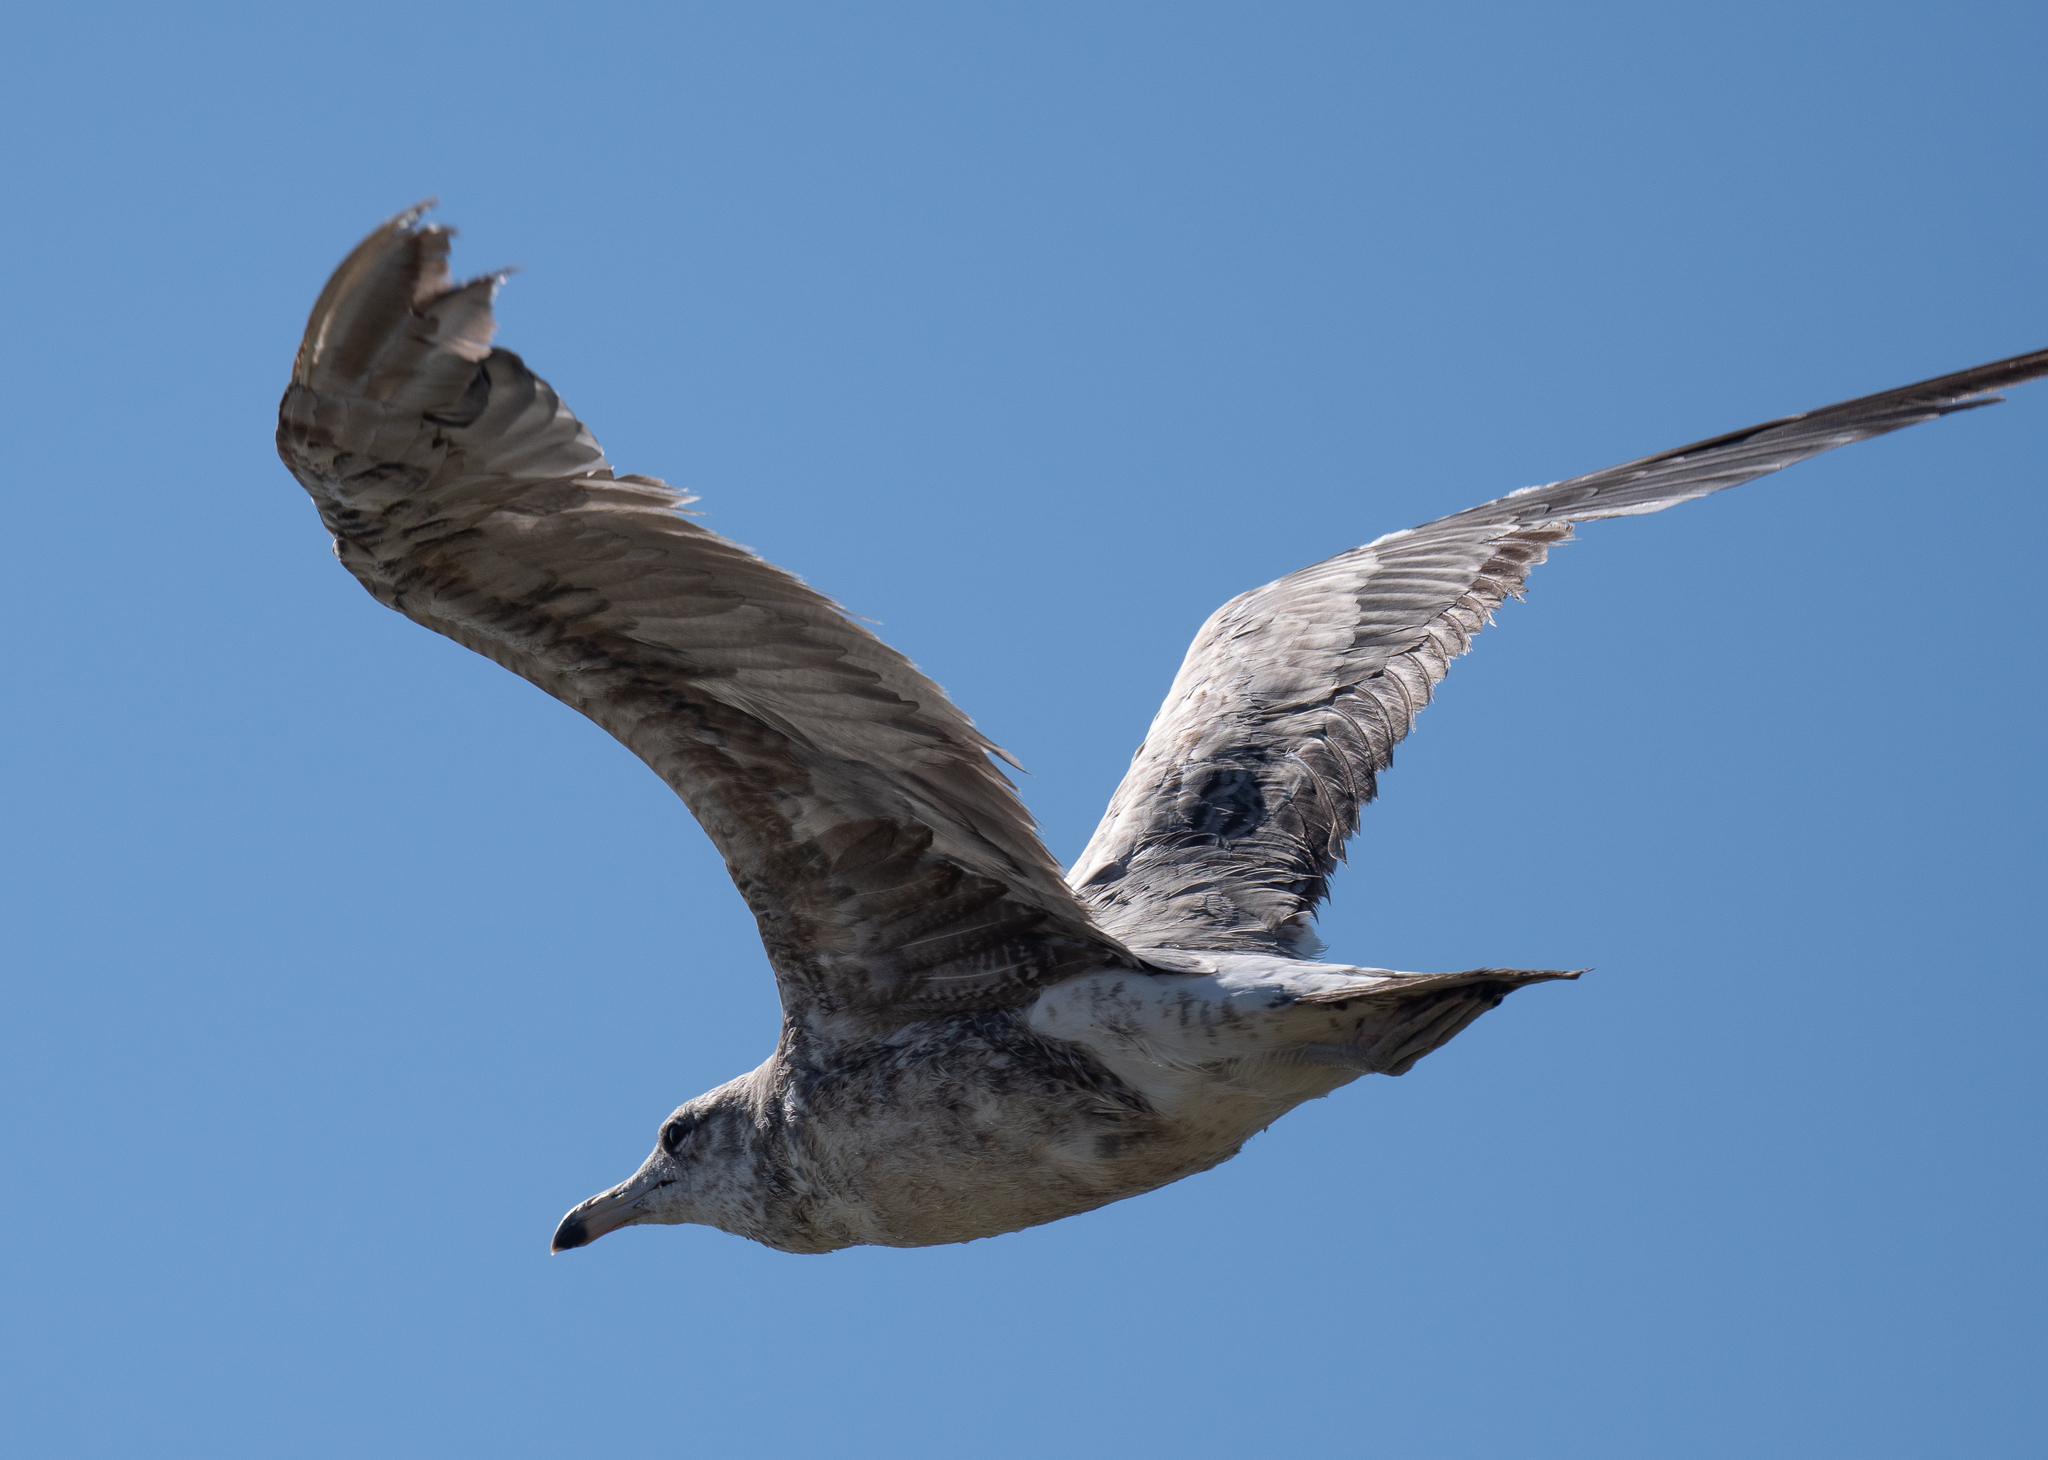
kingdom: Animalia
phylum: Chordata
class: Aves
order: Charadriiformes
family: Laridae
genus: Larus
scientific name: Larus californicus
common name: California gull
